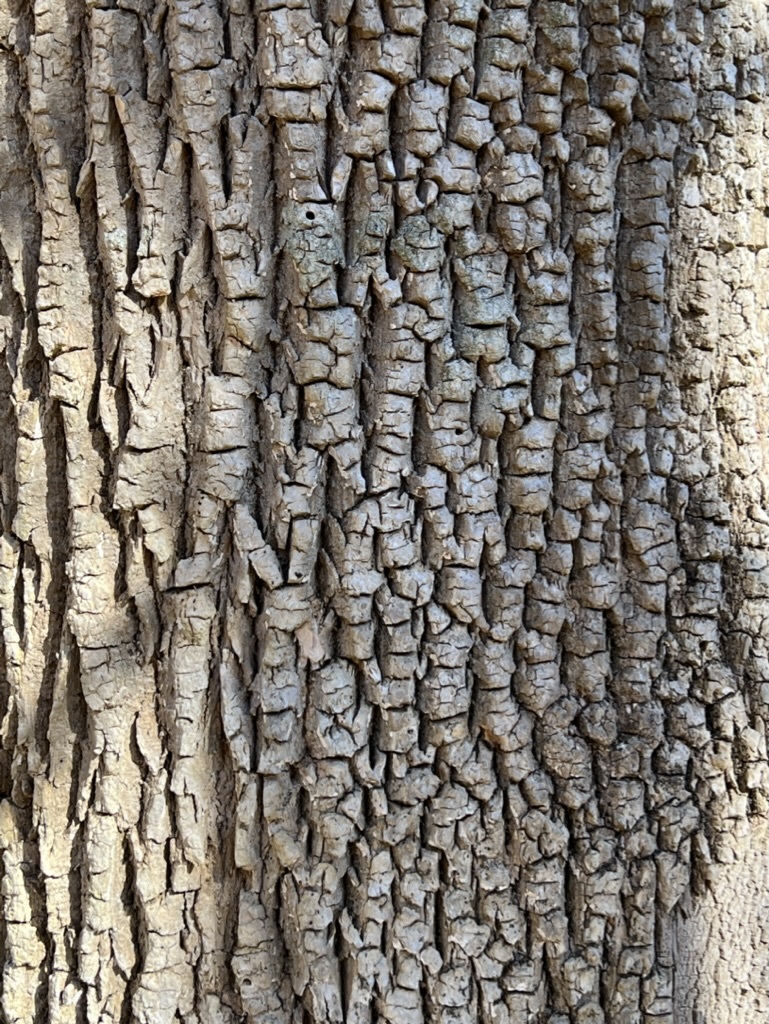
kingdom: Plantae
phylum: Tracheophyta
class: Magnoliopsida
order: Lamiales
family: Oleaceae
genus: Fraxinus
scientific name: Fraxinus americana
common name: White ash
